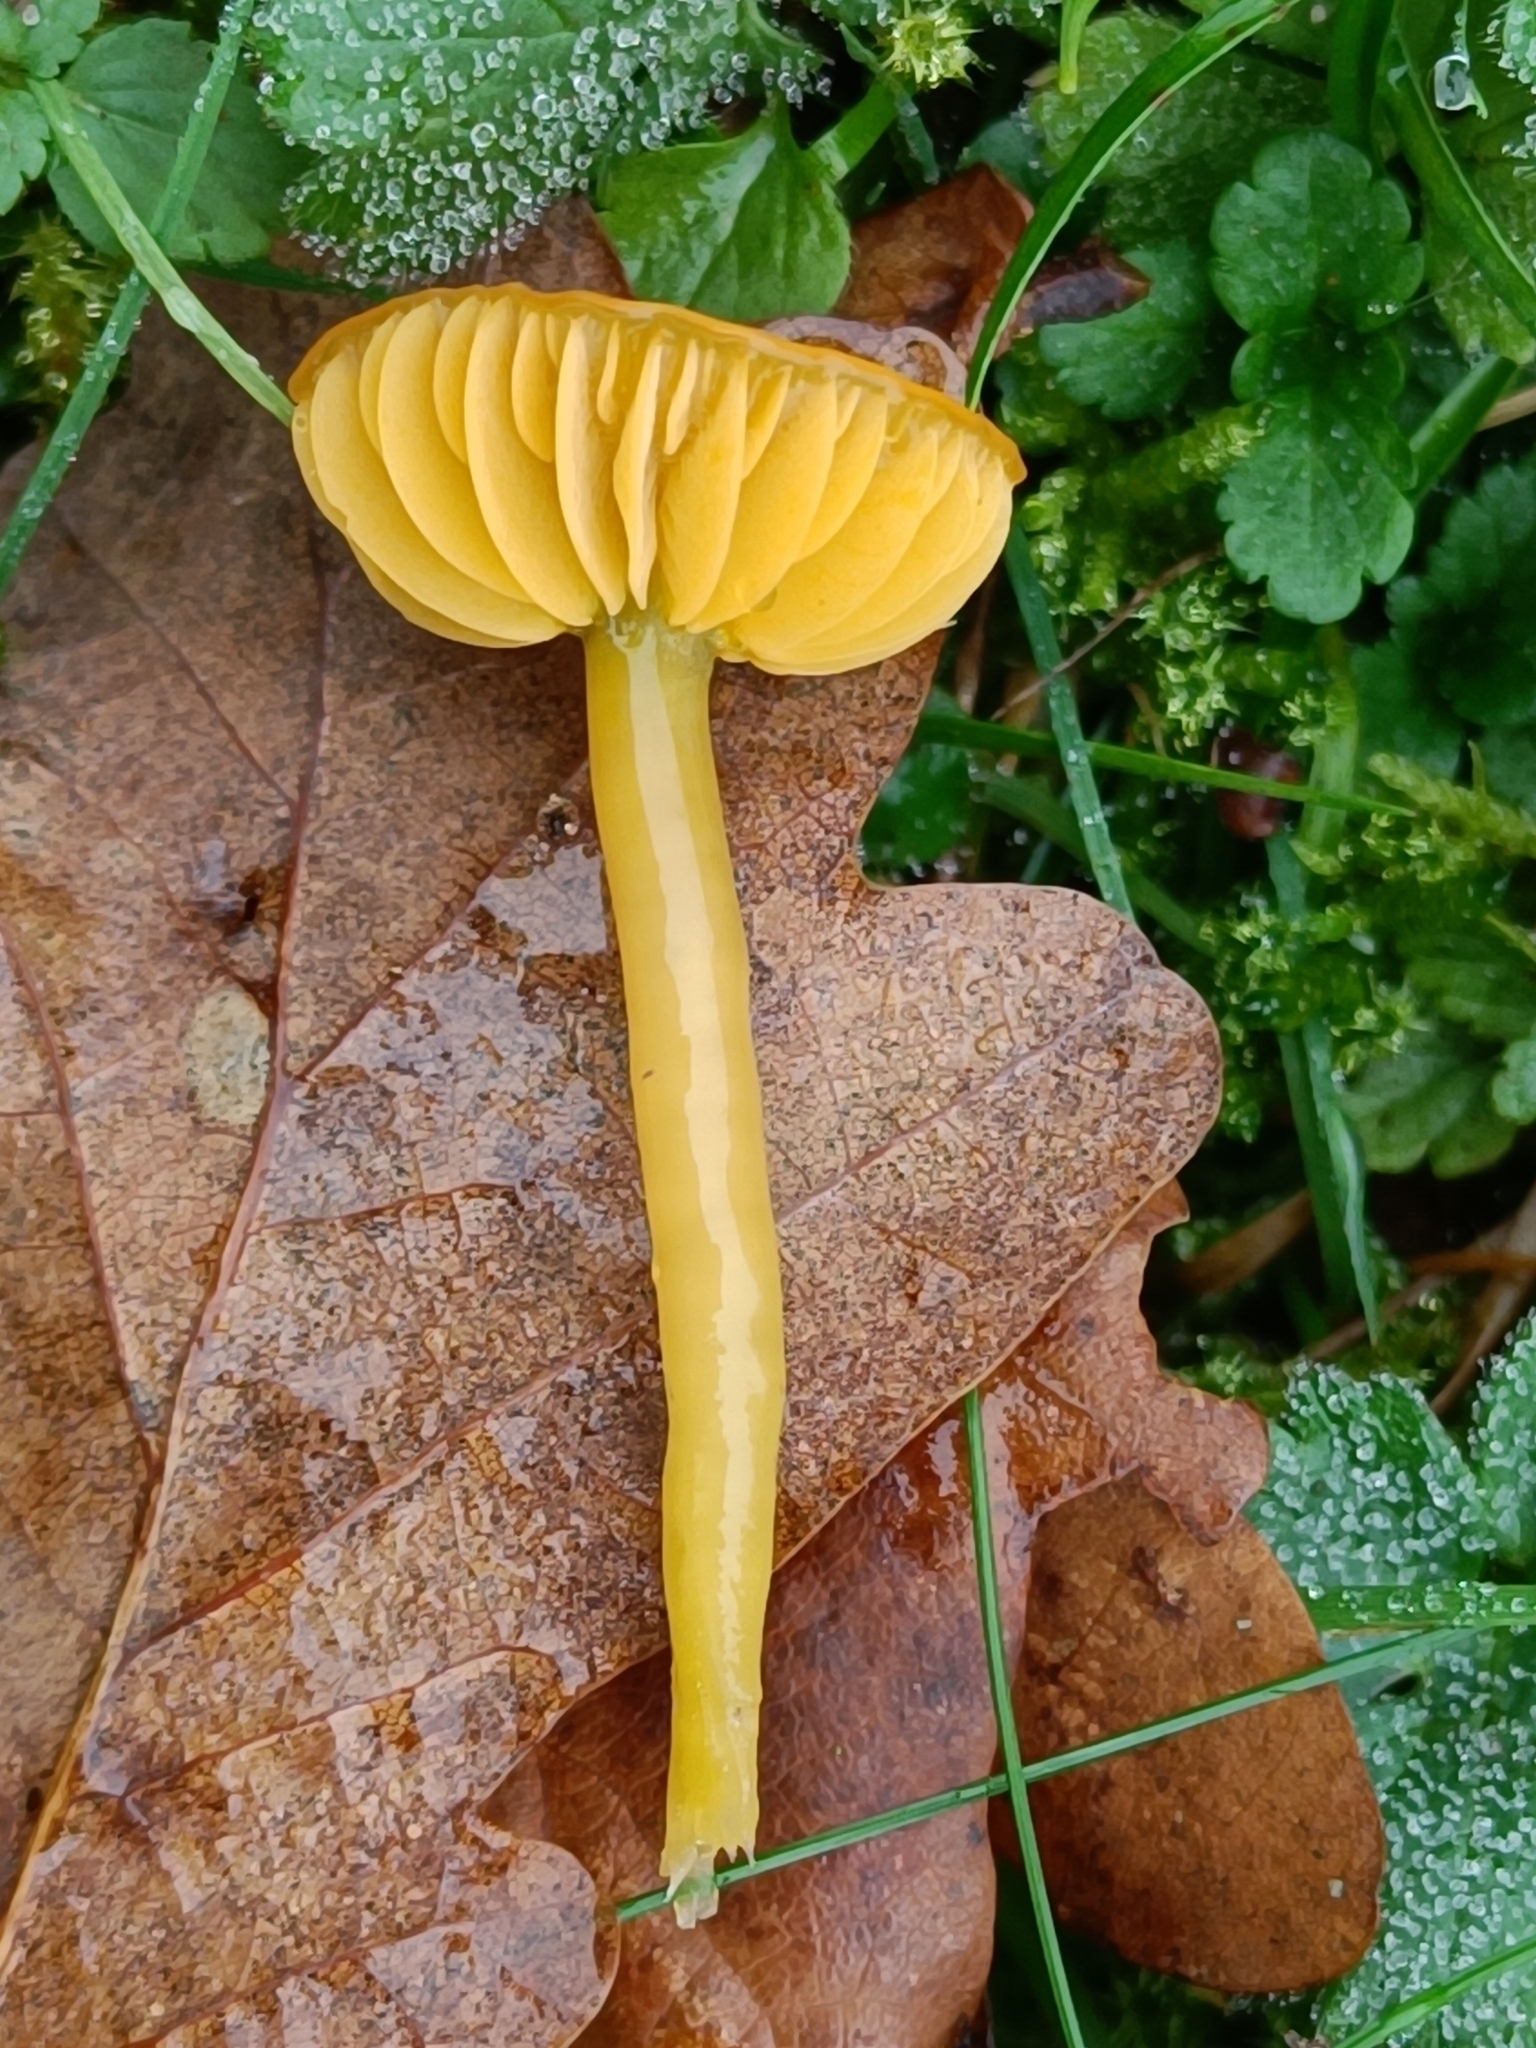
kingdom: Fungi
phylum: Basidiomycota
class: Agaricomycetes
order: Agaricales
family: Hygrophoraceae
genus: Gliophorus
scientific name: Gliophorus psittacinus
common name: Parrot wax-cap
